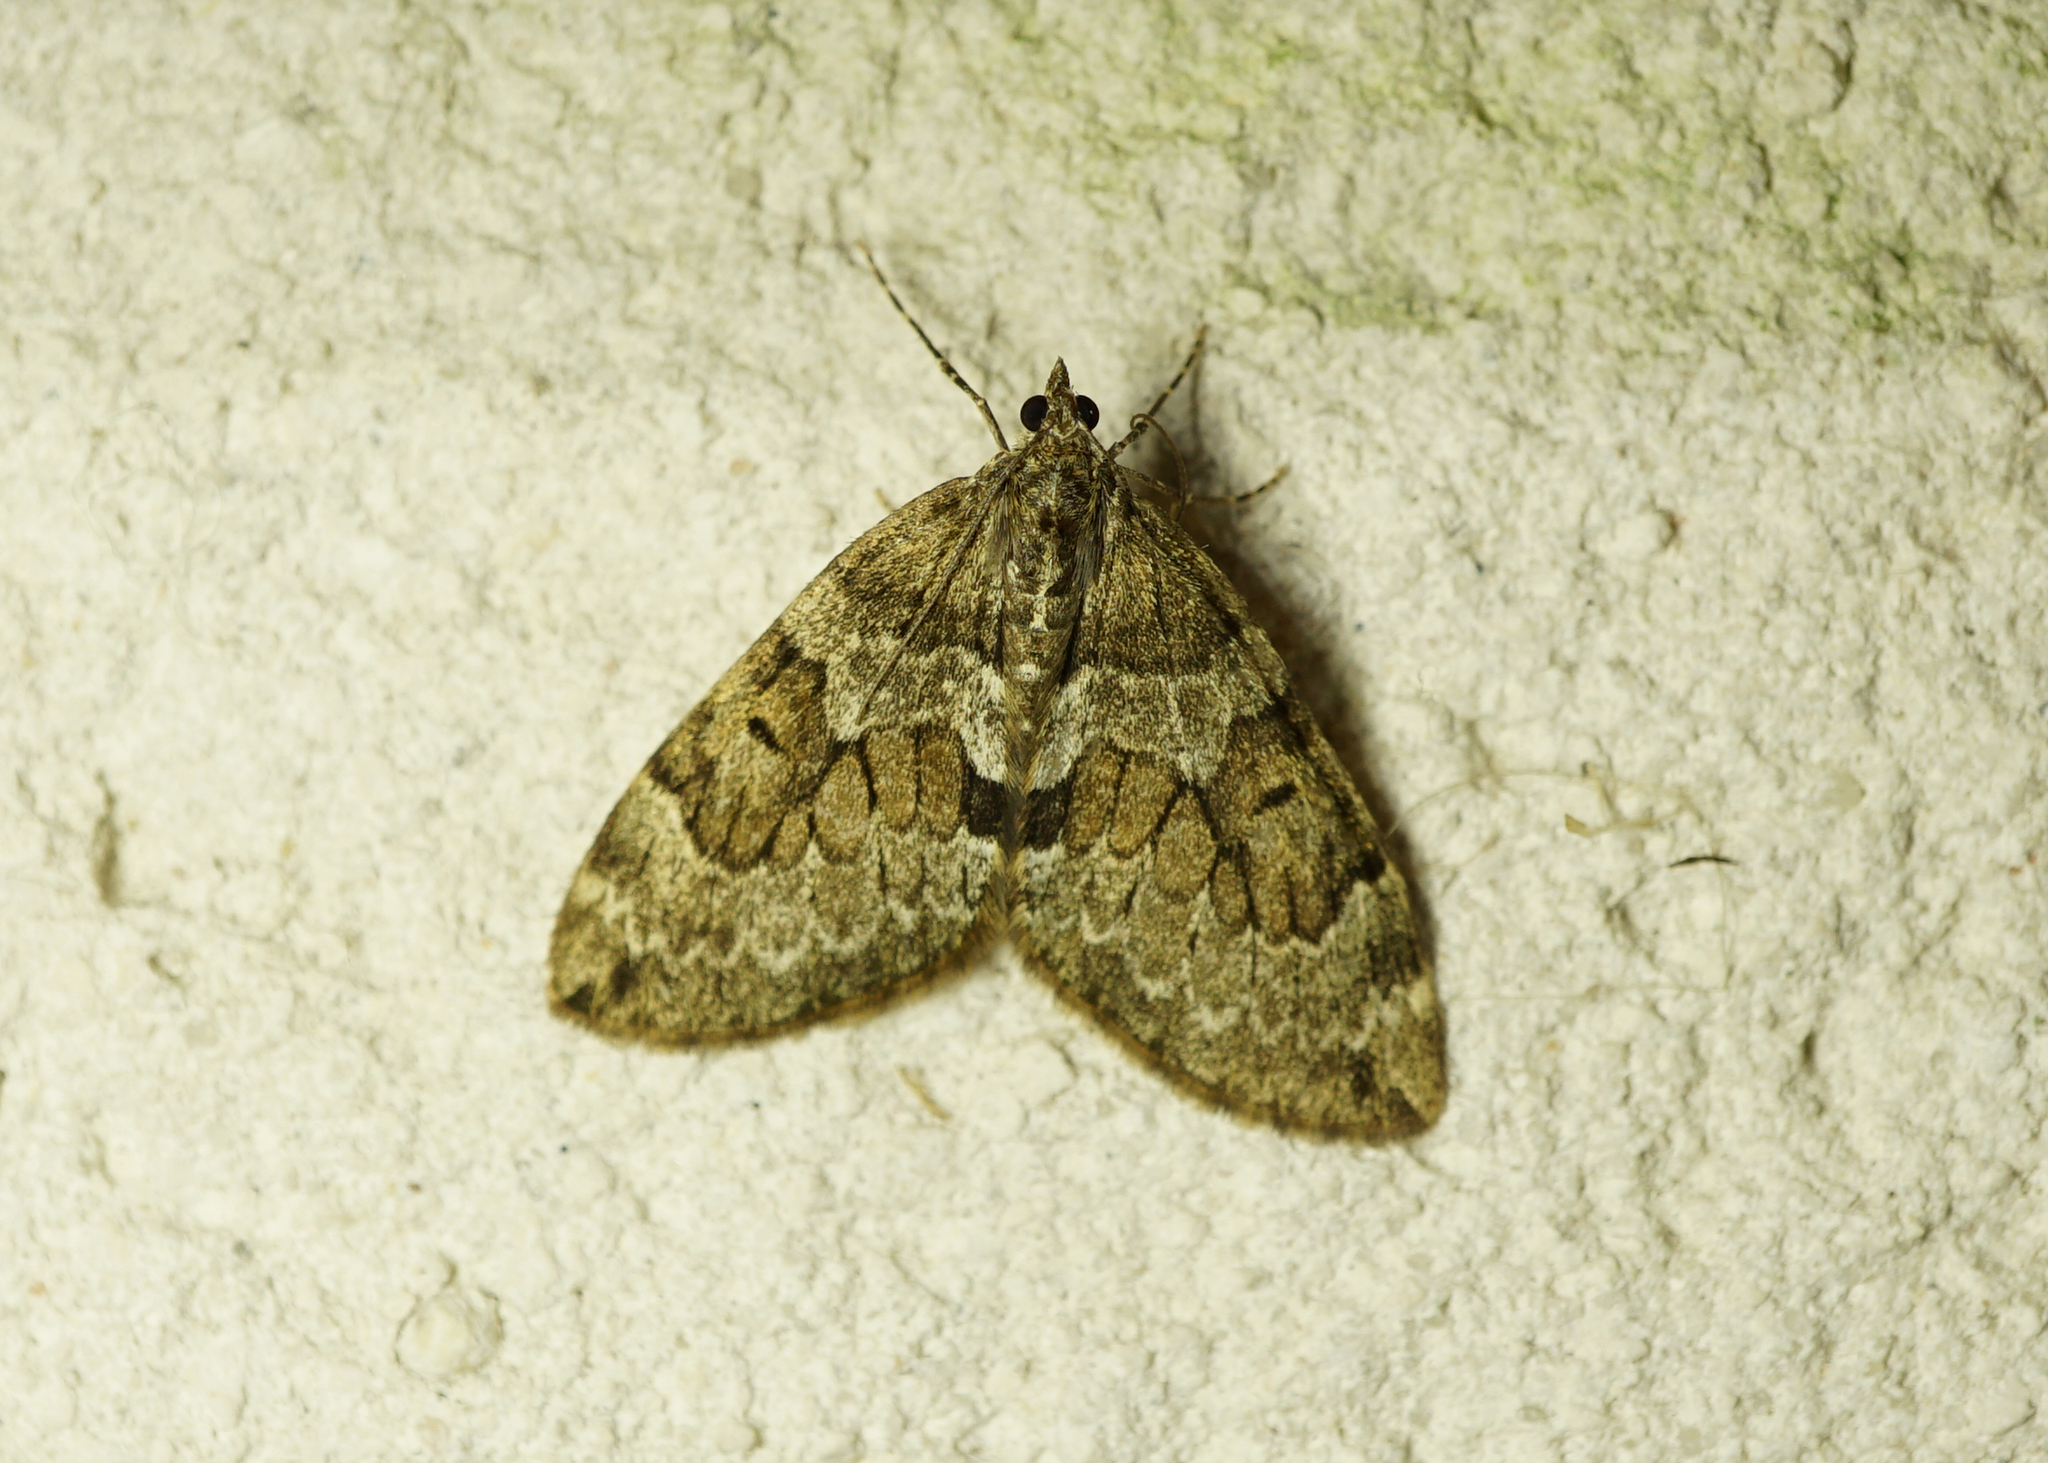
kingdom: Animalia
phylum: Arthropoda
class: Insecta
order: Lepidoptera
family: Geometridae
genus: Thera
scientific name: Thera britannica
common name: Spruce carpet
